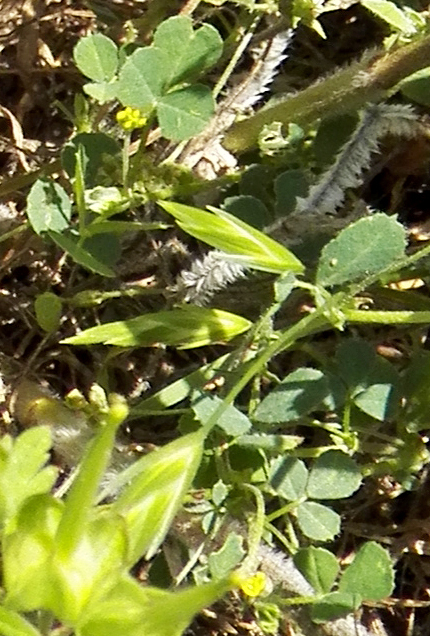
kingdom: Plantae
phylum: Tracheophyta
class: Magnoliopsida
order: Fabales
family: Fabaceae
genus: Medicago
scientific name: Medicago lupulina
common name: Black medick
